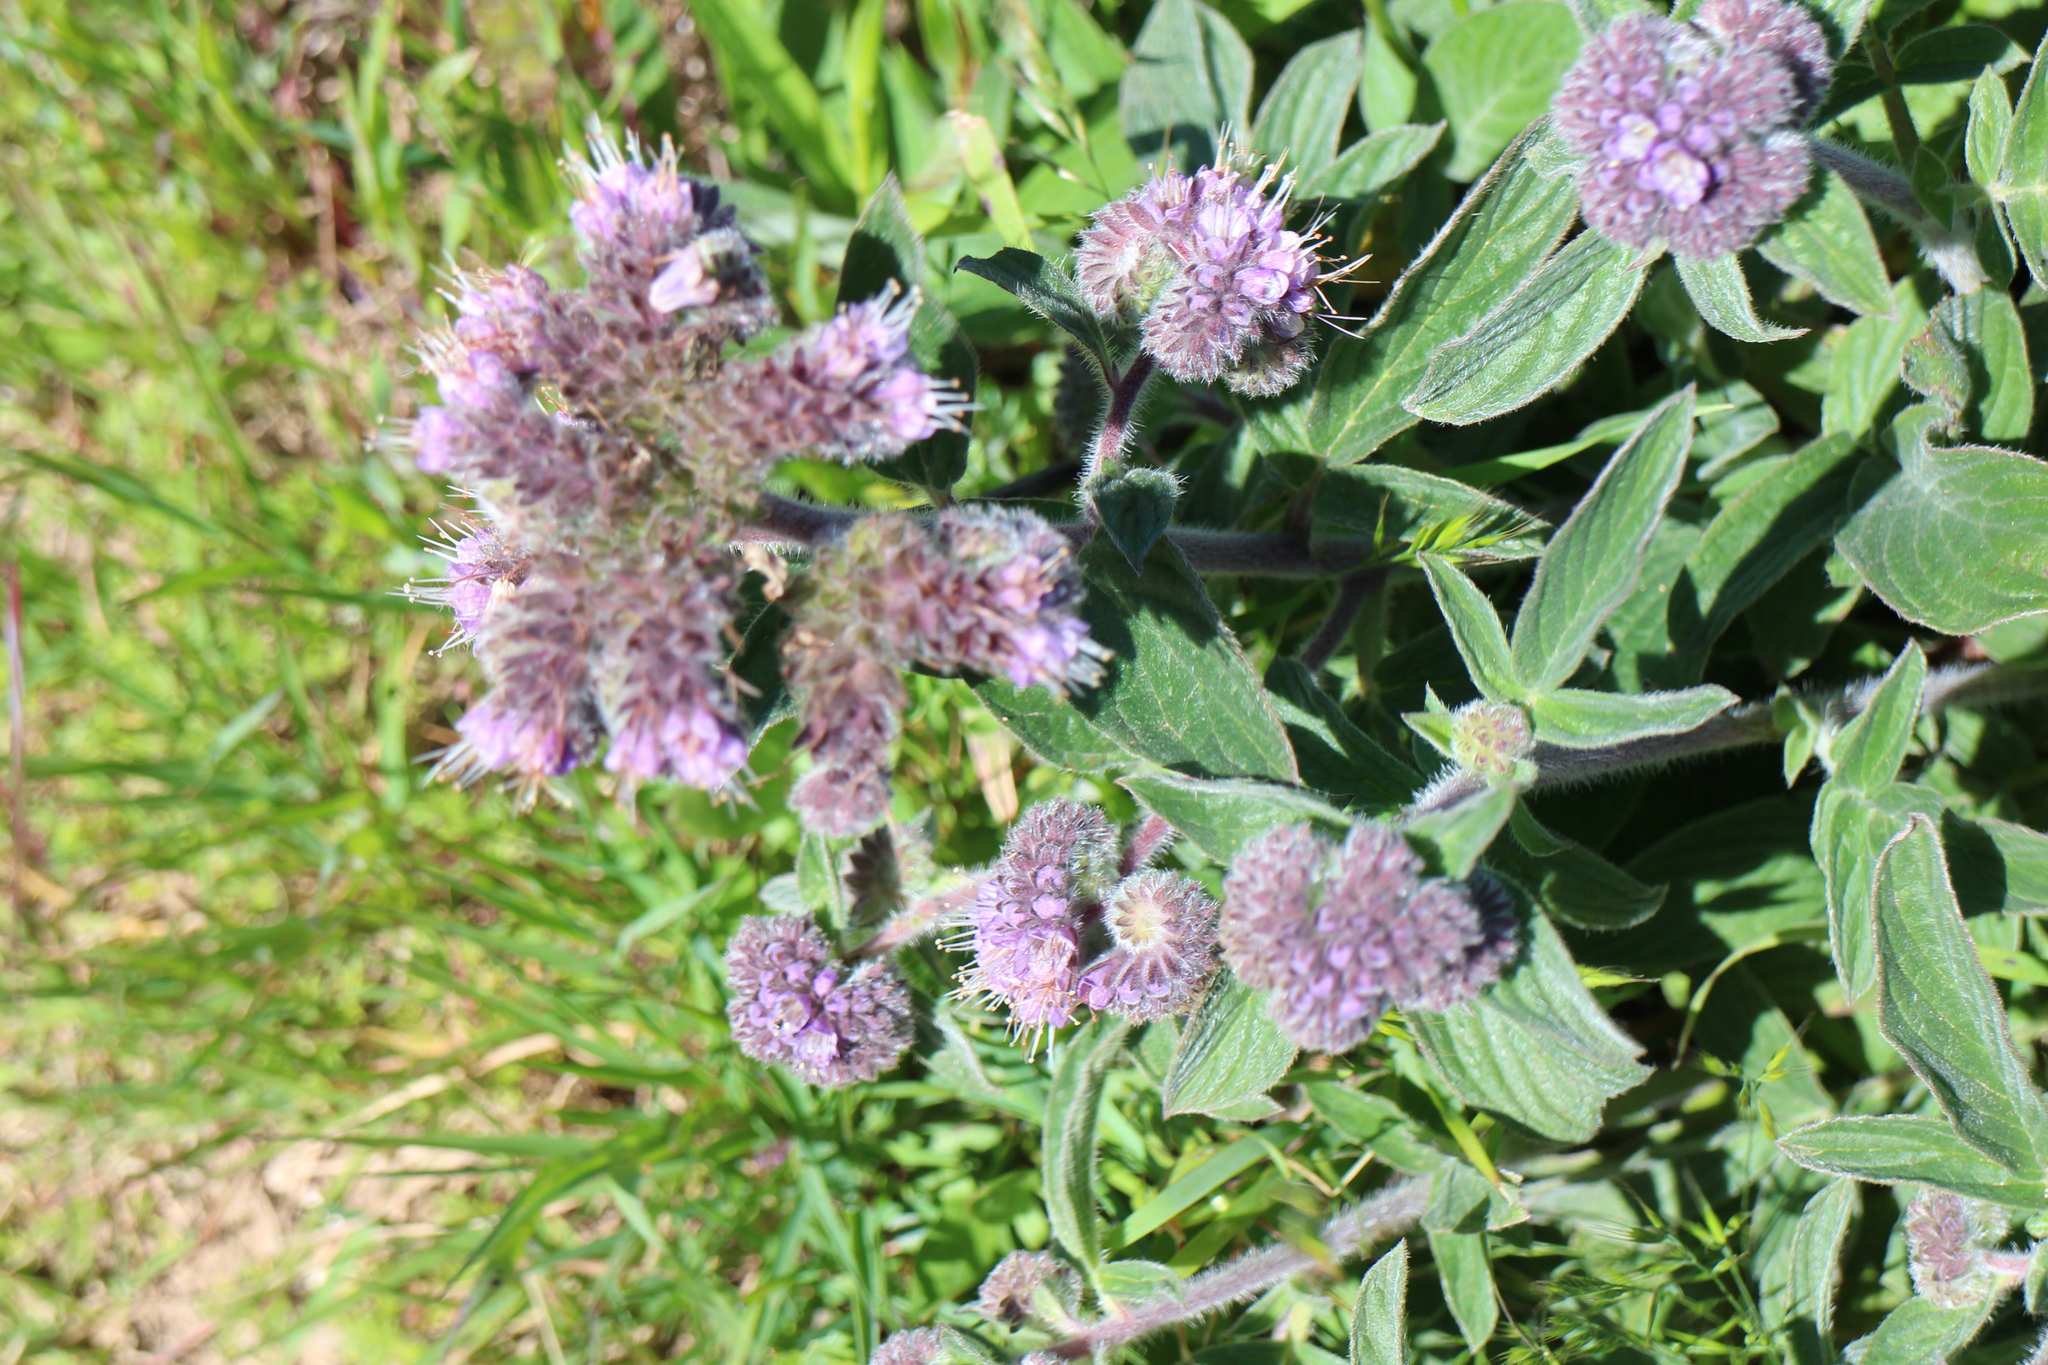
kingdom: Plantae
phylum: Tracheophyta
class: Magnoliopsida
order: Boraginales
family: Hydrophyllaceae
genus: Phacelia
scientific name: Phacelia californica
